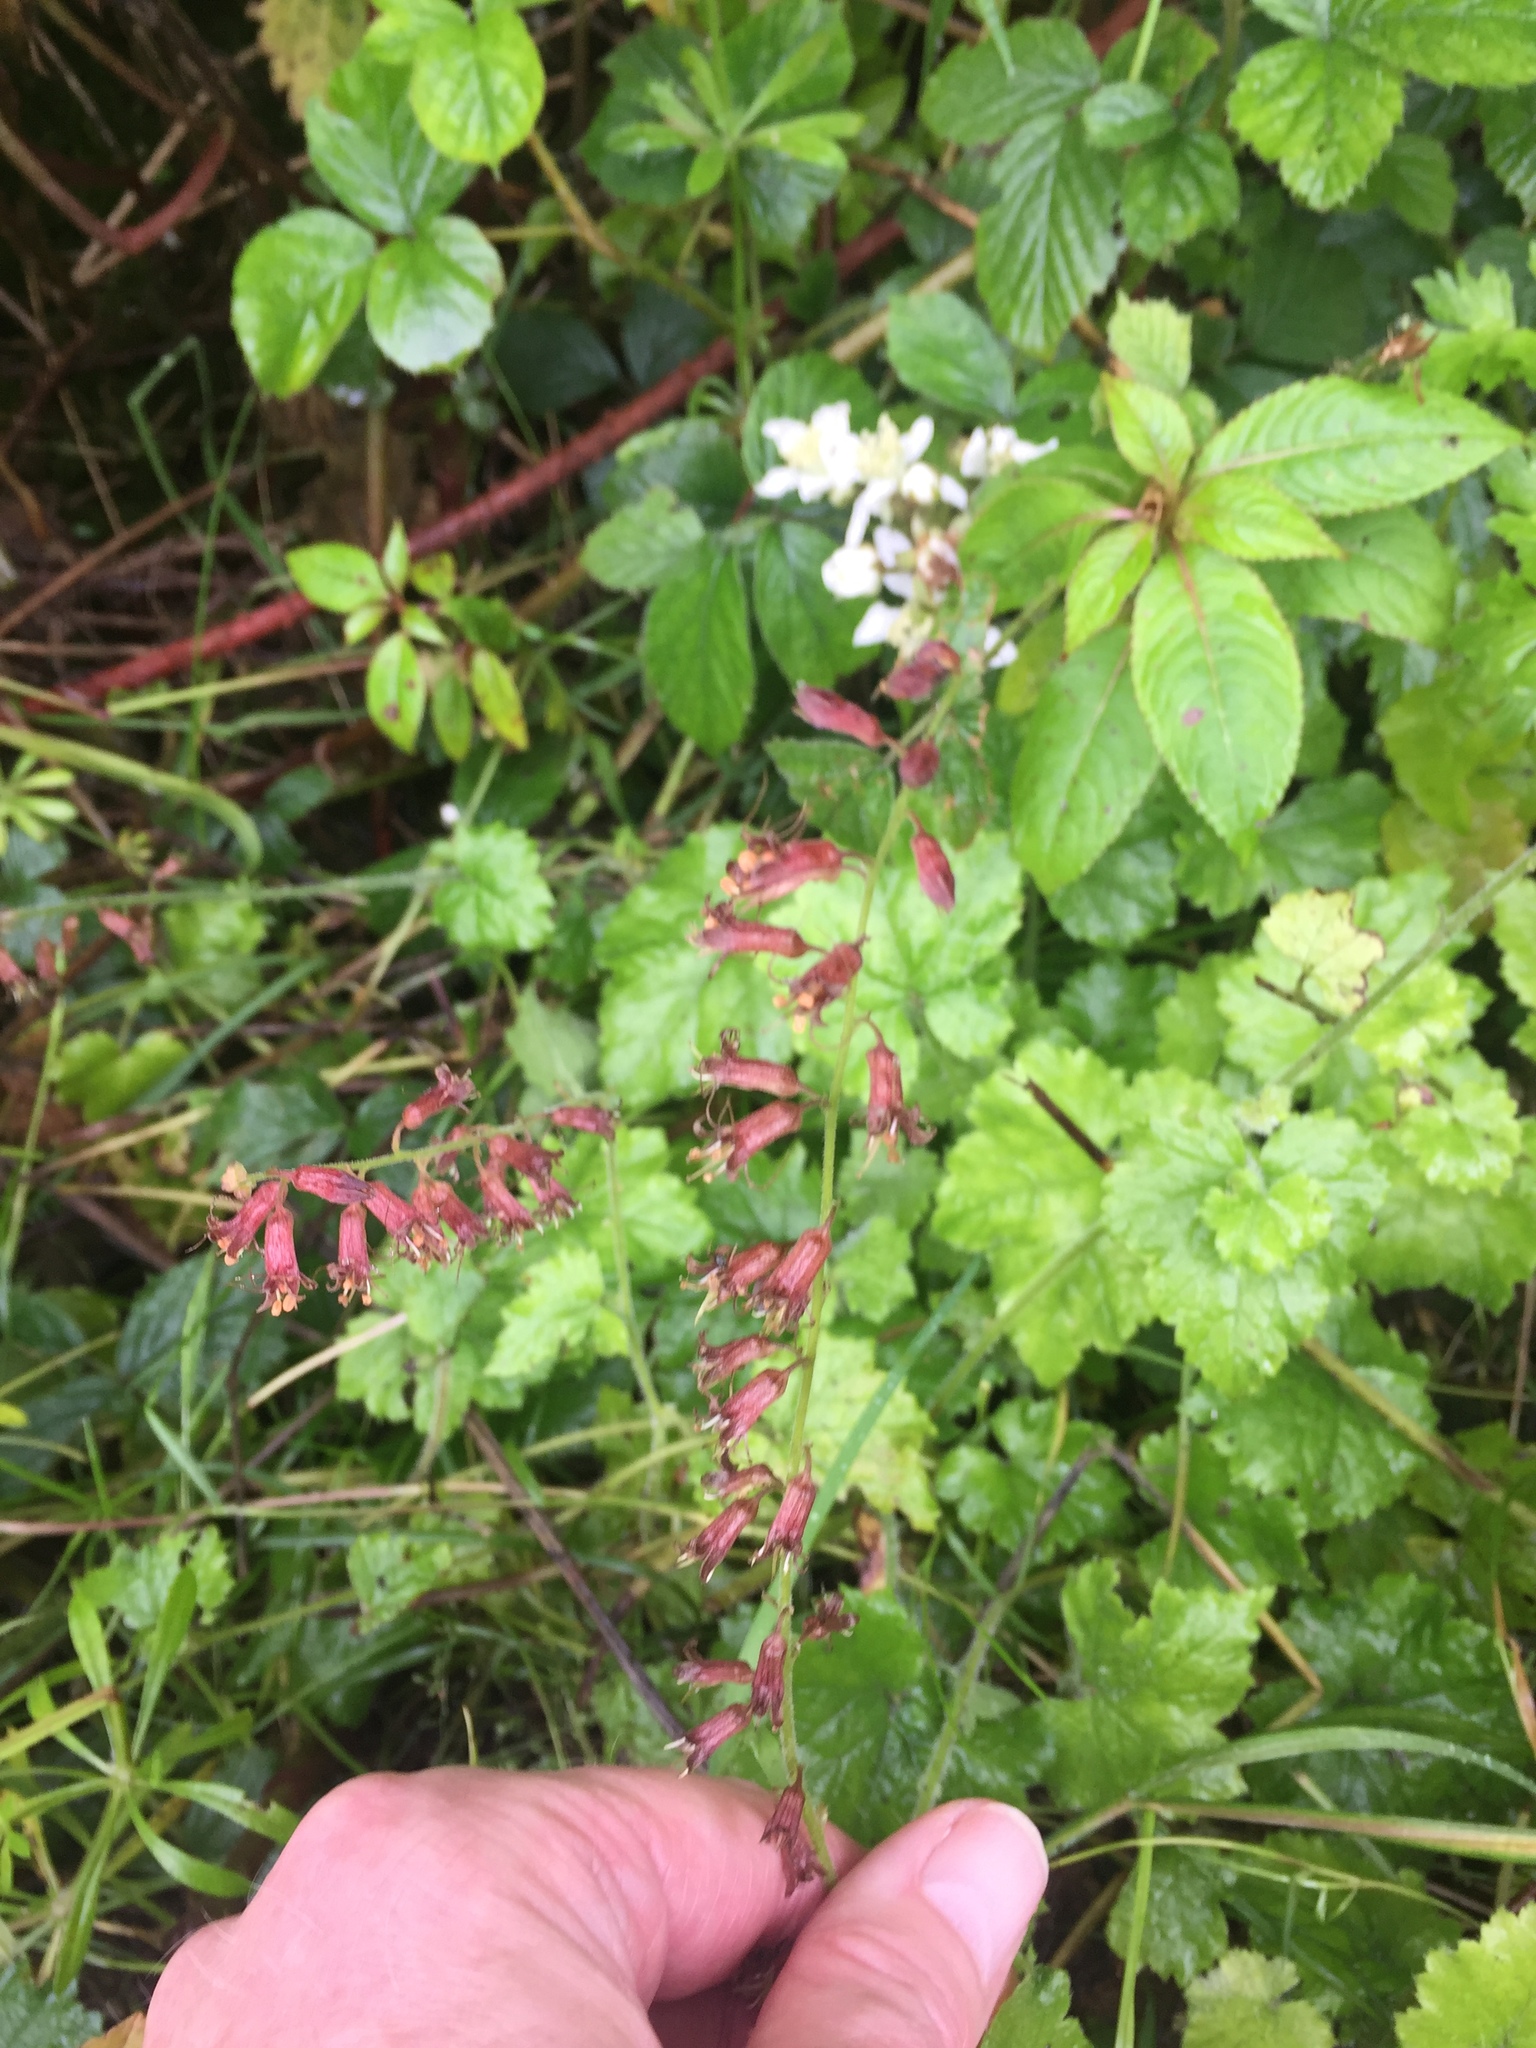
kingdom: Plantae
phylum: Tracheophyta
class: Magnoliopsida
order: Saxifragales
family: Saxifragaceae
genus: Tolmiea
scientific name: Tolmiea menziesii
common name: Pick-a-back-plant
